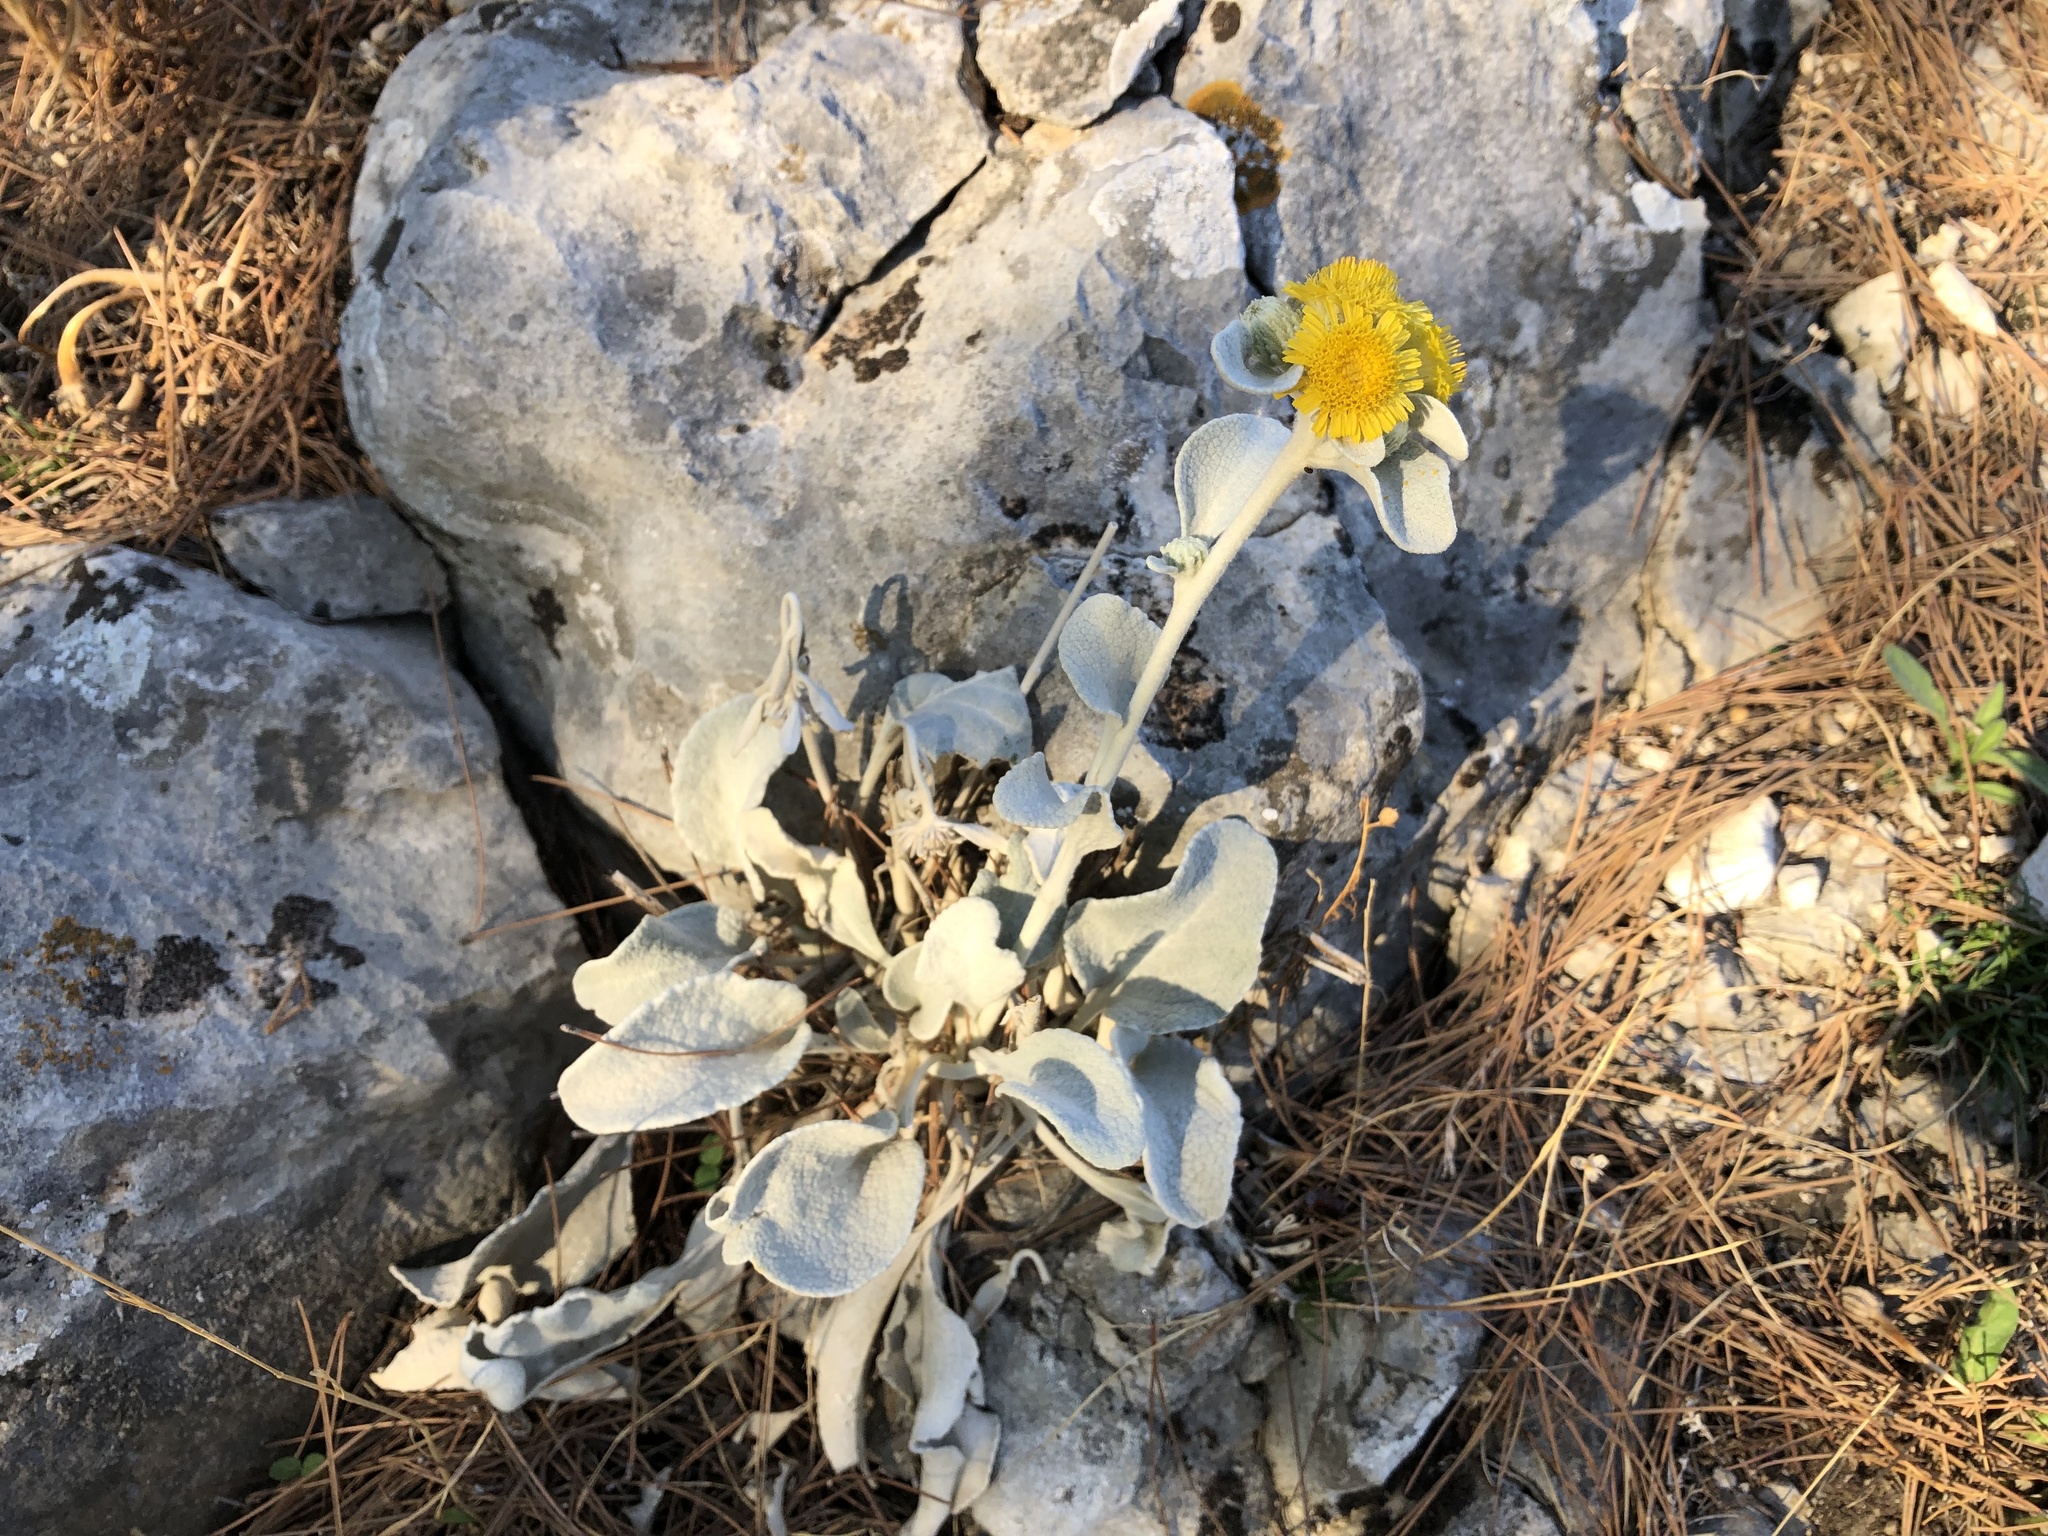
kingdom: Plantae
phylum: Tracheophyta
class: Magnoliopsida
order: Asterales
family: Asteraceae
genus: Pentanema
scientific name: Pentanema verbascifolium
